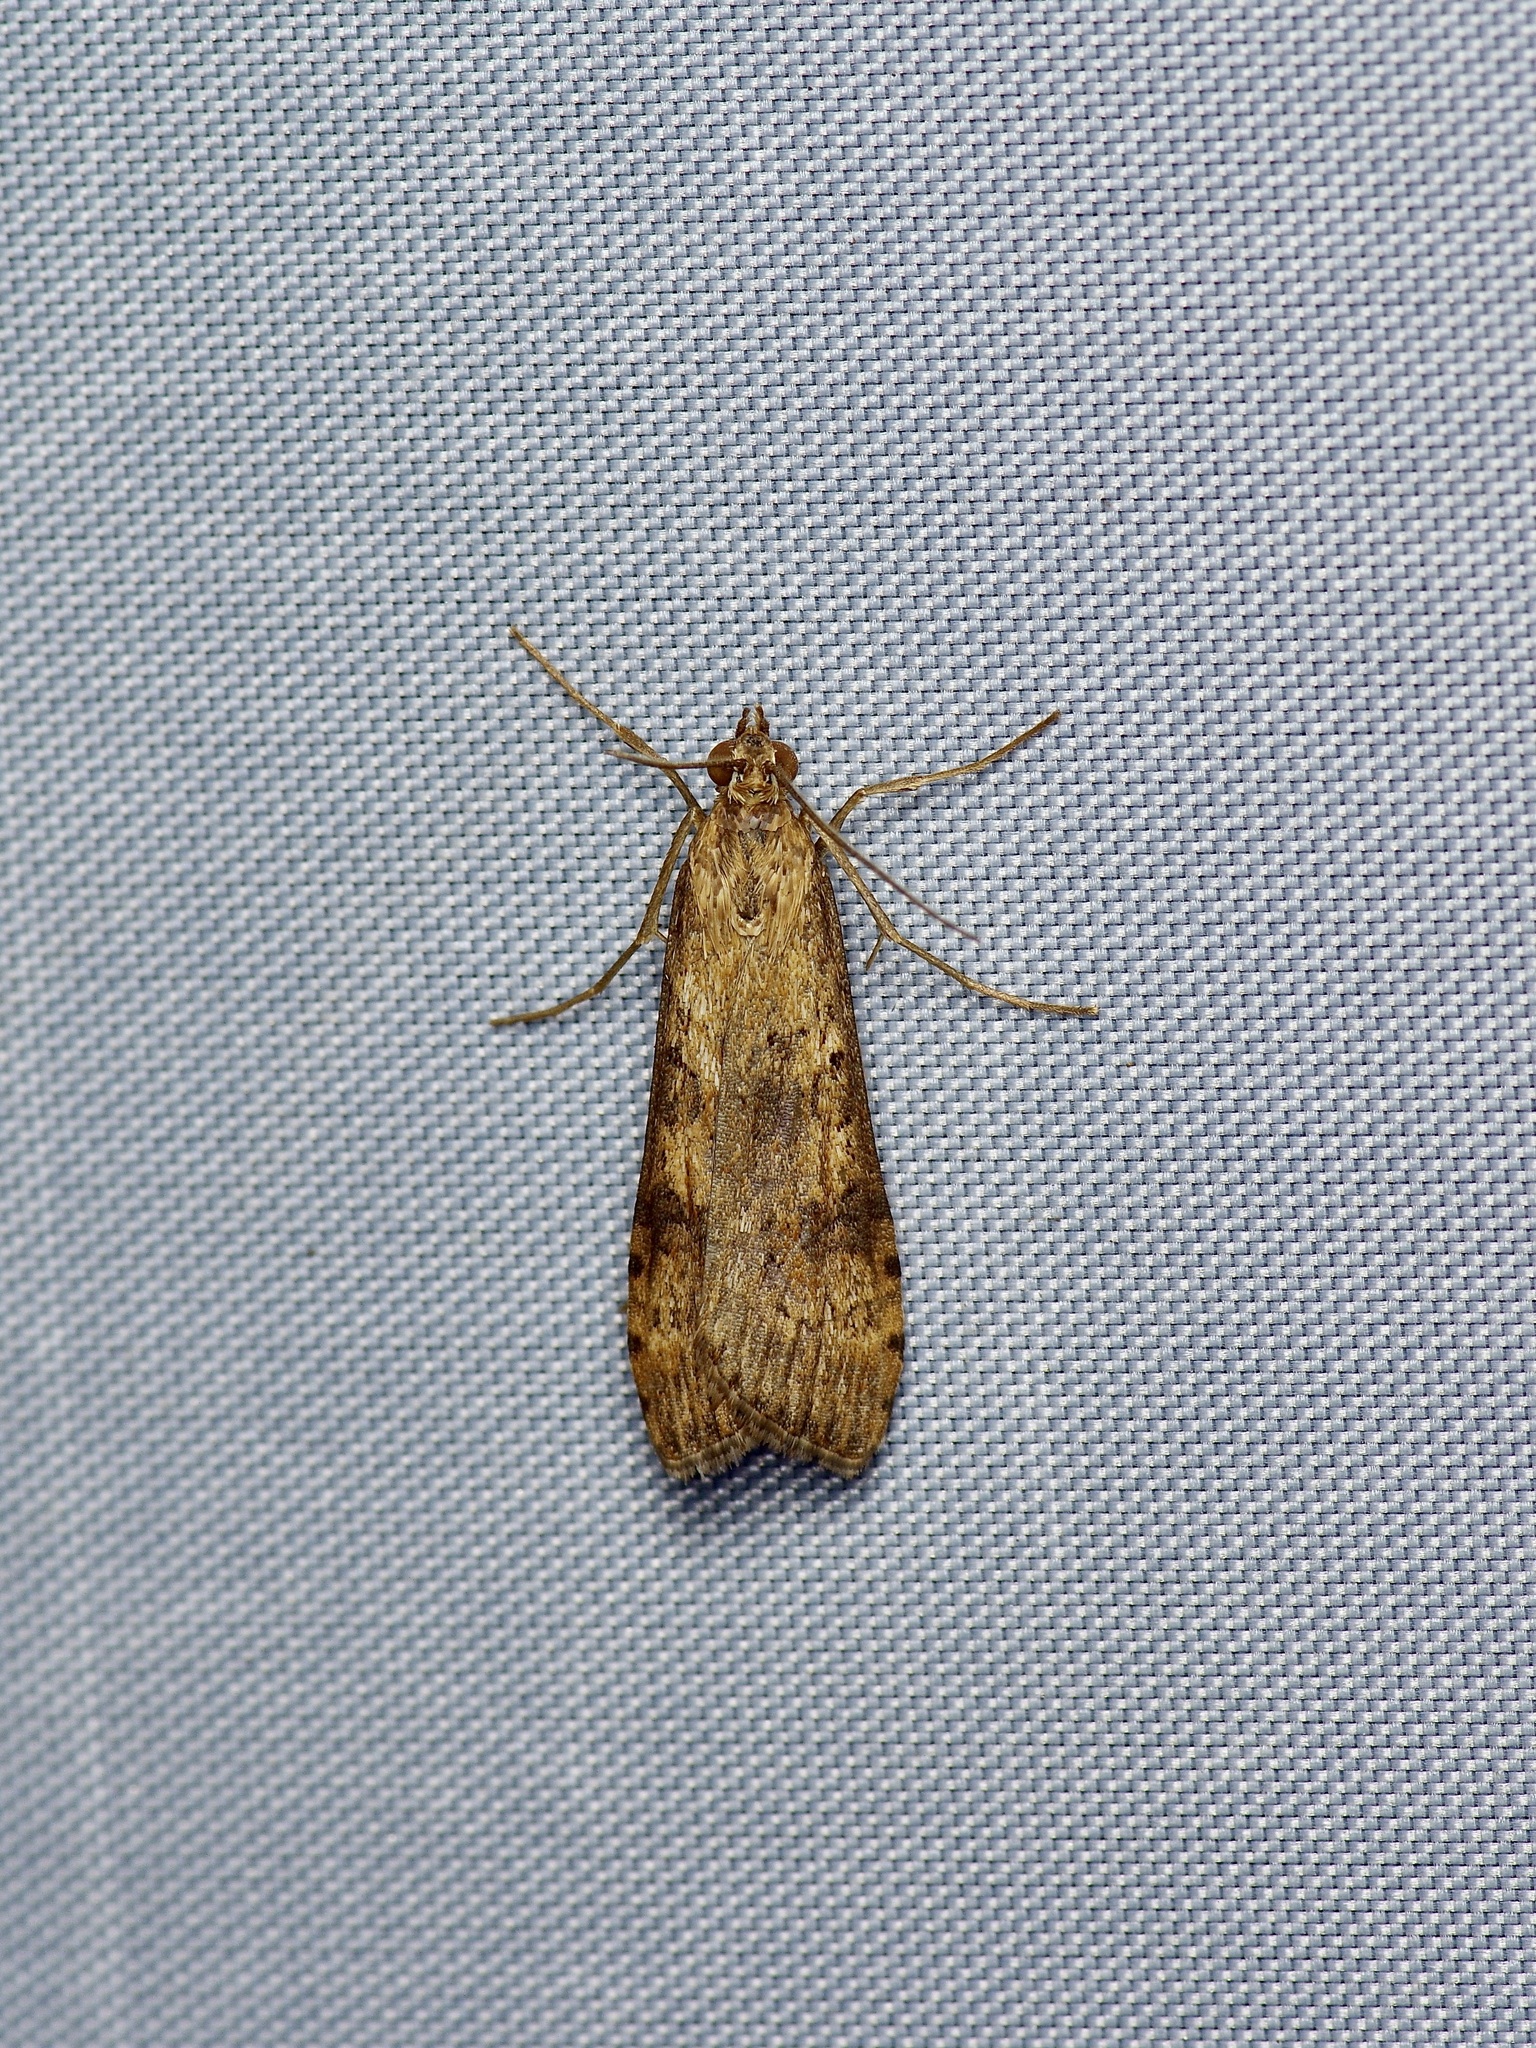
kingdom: Animalia
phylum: Arthropoda
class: Insecta
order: Lepidoptera
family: Crambidae
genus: Nomophila
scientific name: Nomophila nearctica
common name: American rush veneer
